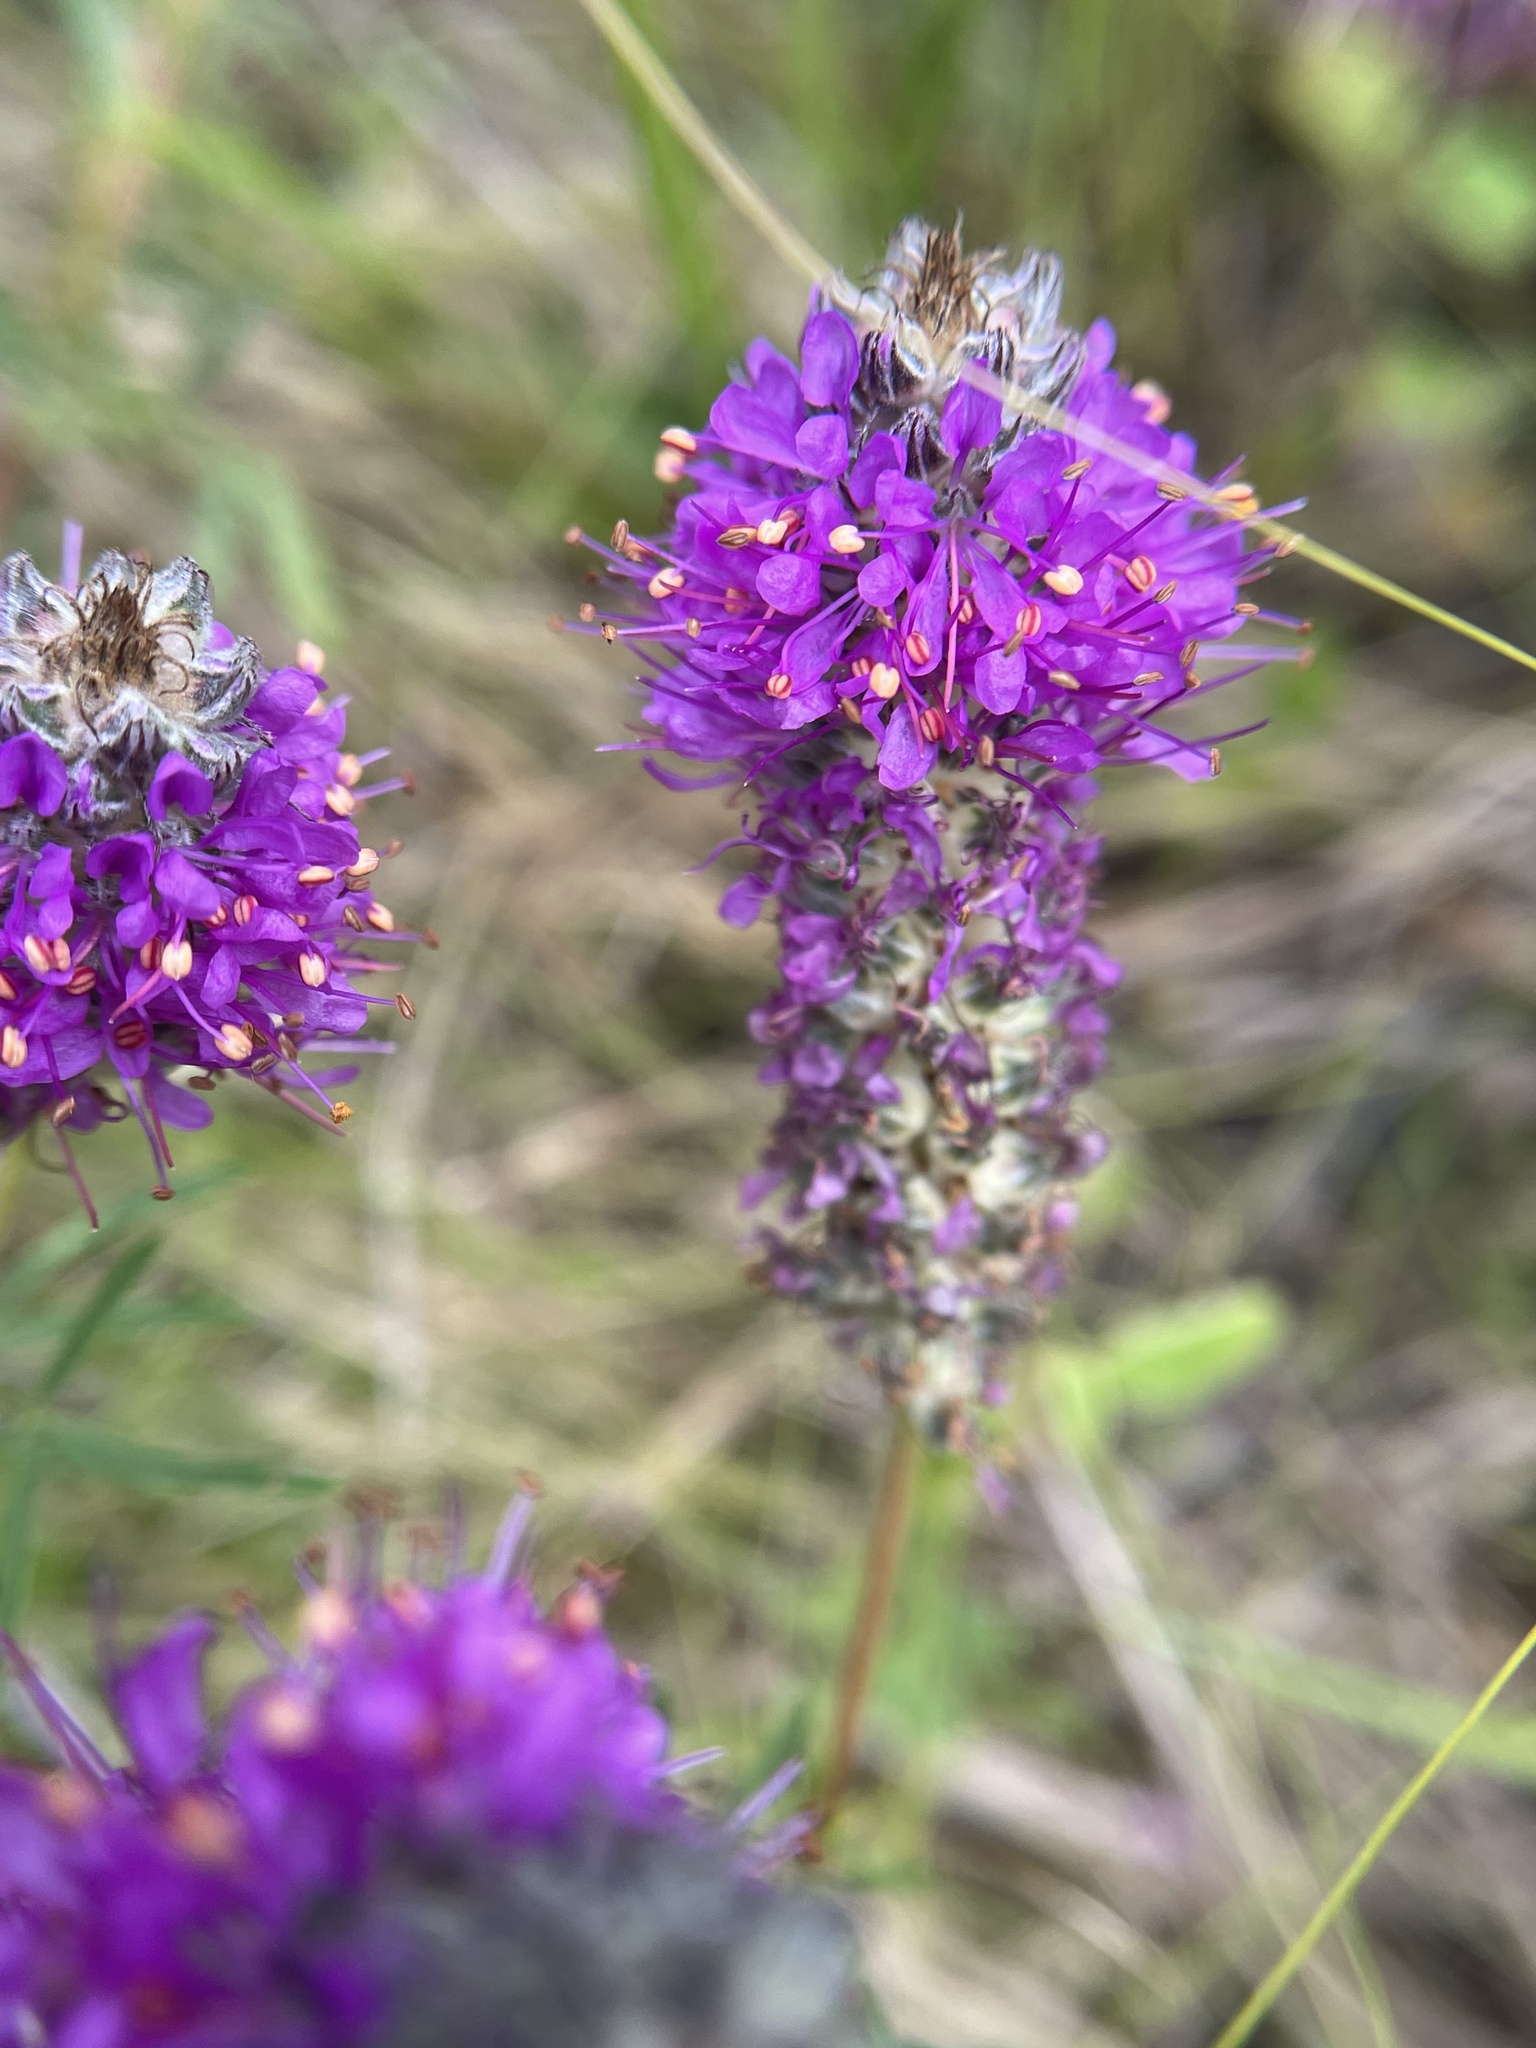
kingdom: Plantae
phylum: Tracheophyta
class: Magnoliopsida
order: Fabales
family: Fabaceae
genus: Dalea
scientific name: Dalea gattingeri
